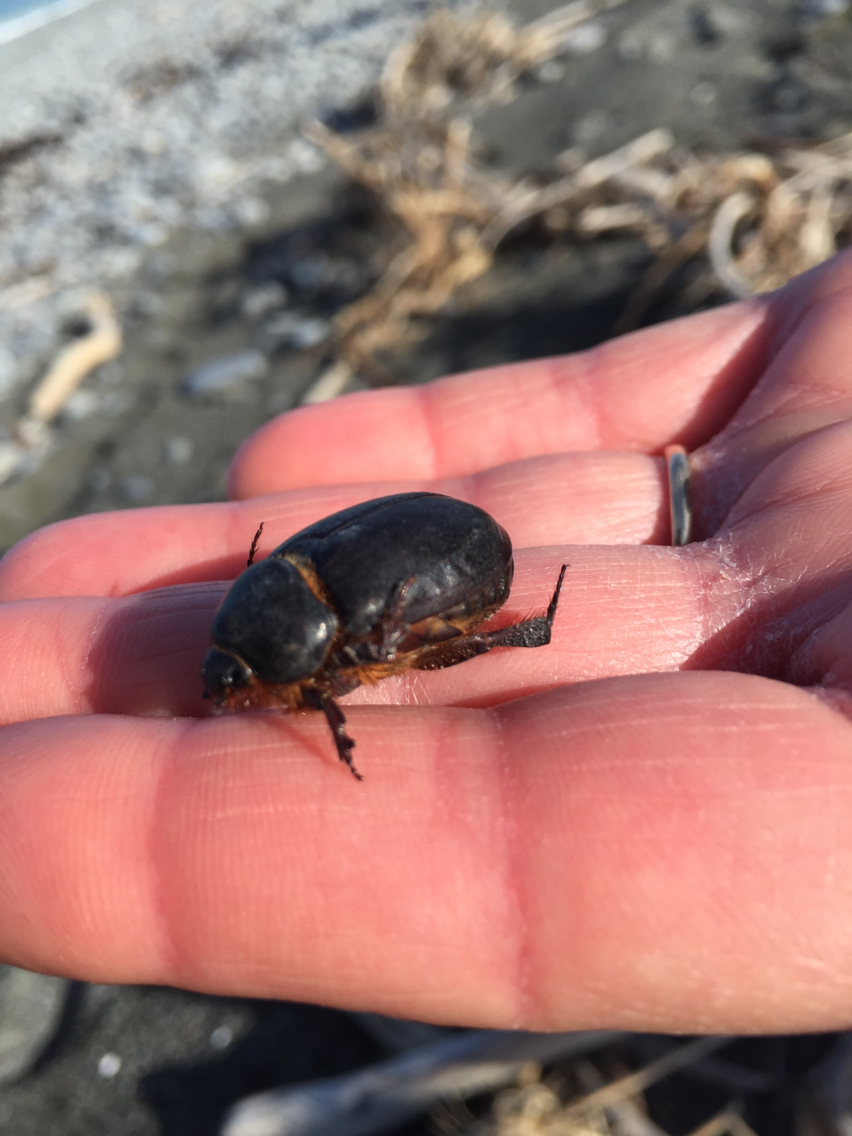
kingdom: Animalia
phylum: Arthropoda
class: Insecta
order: Coleoptera
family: Scarabaeidae
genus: Pericoptus
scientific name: Pericoptus truncatus
